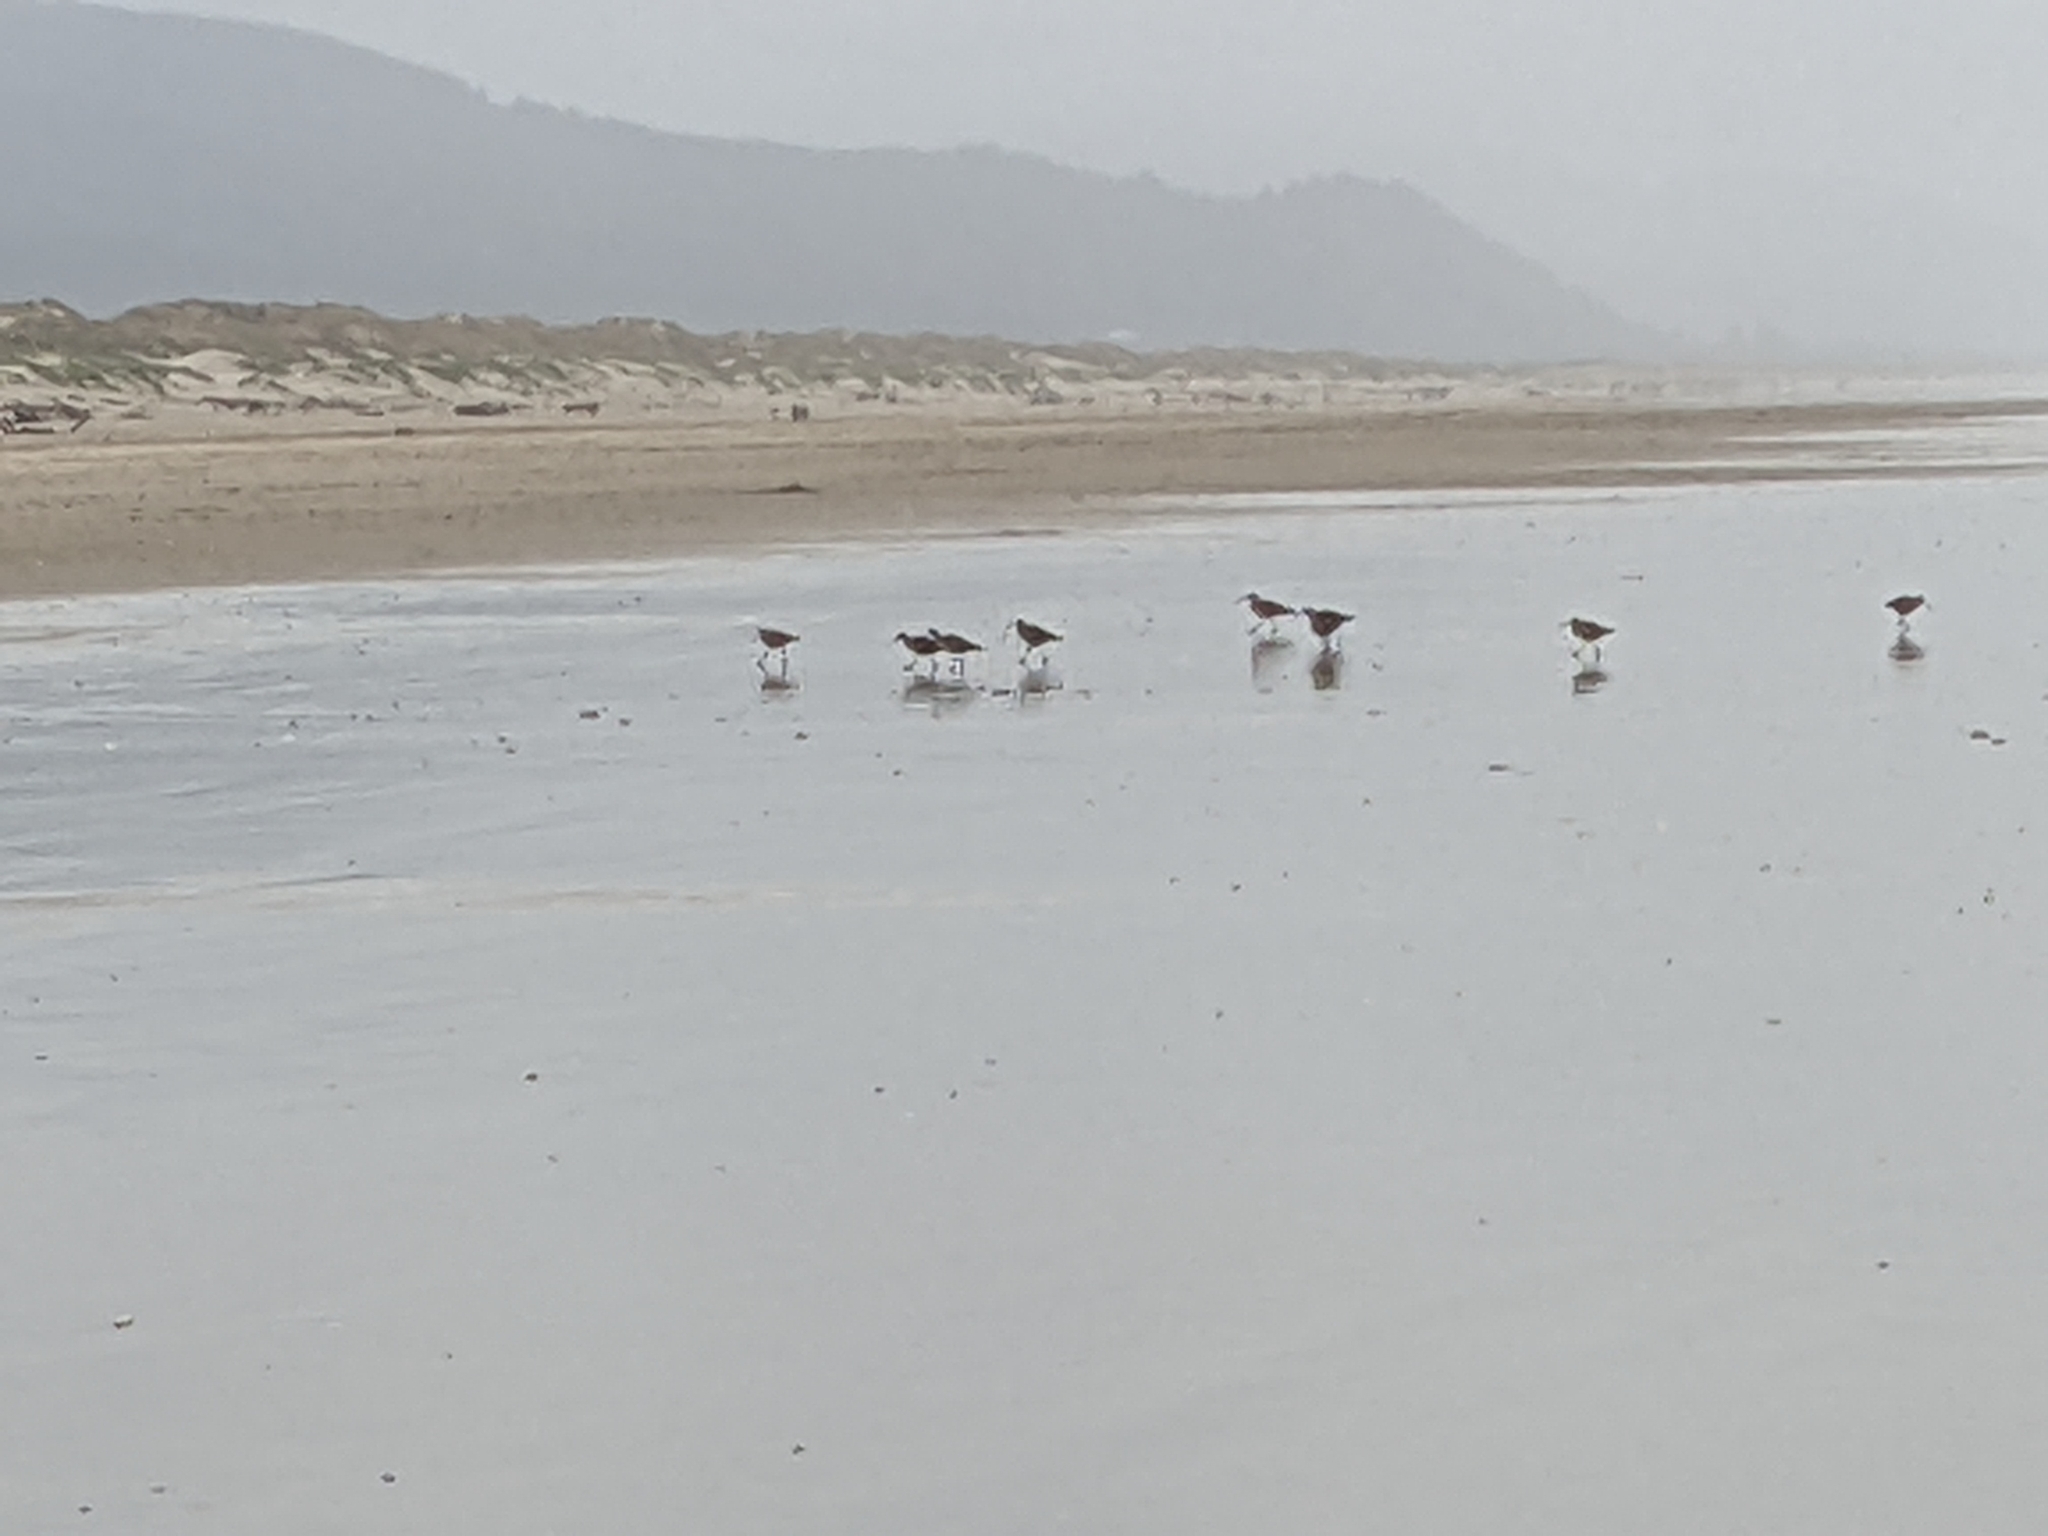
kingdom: Animalia
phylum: Chordata
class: Aves
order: Charadriiformes
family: Scolopacidae
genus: Numenius
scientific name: Numenius phaeopus
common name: Whimbrel
